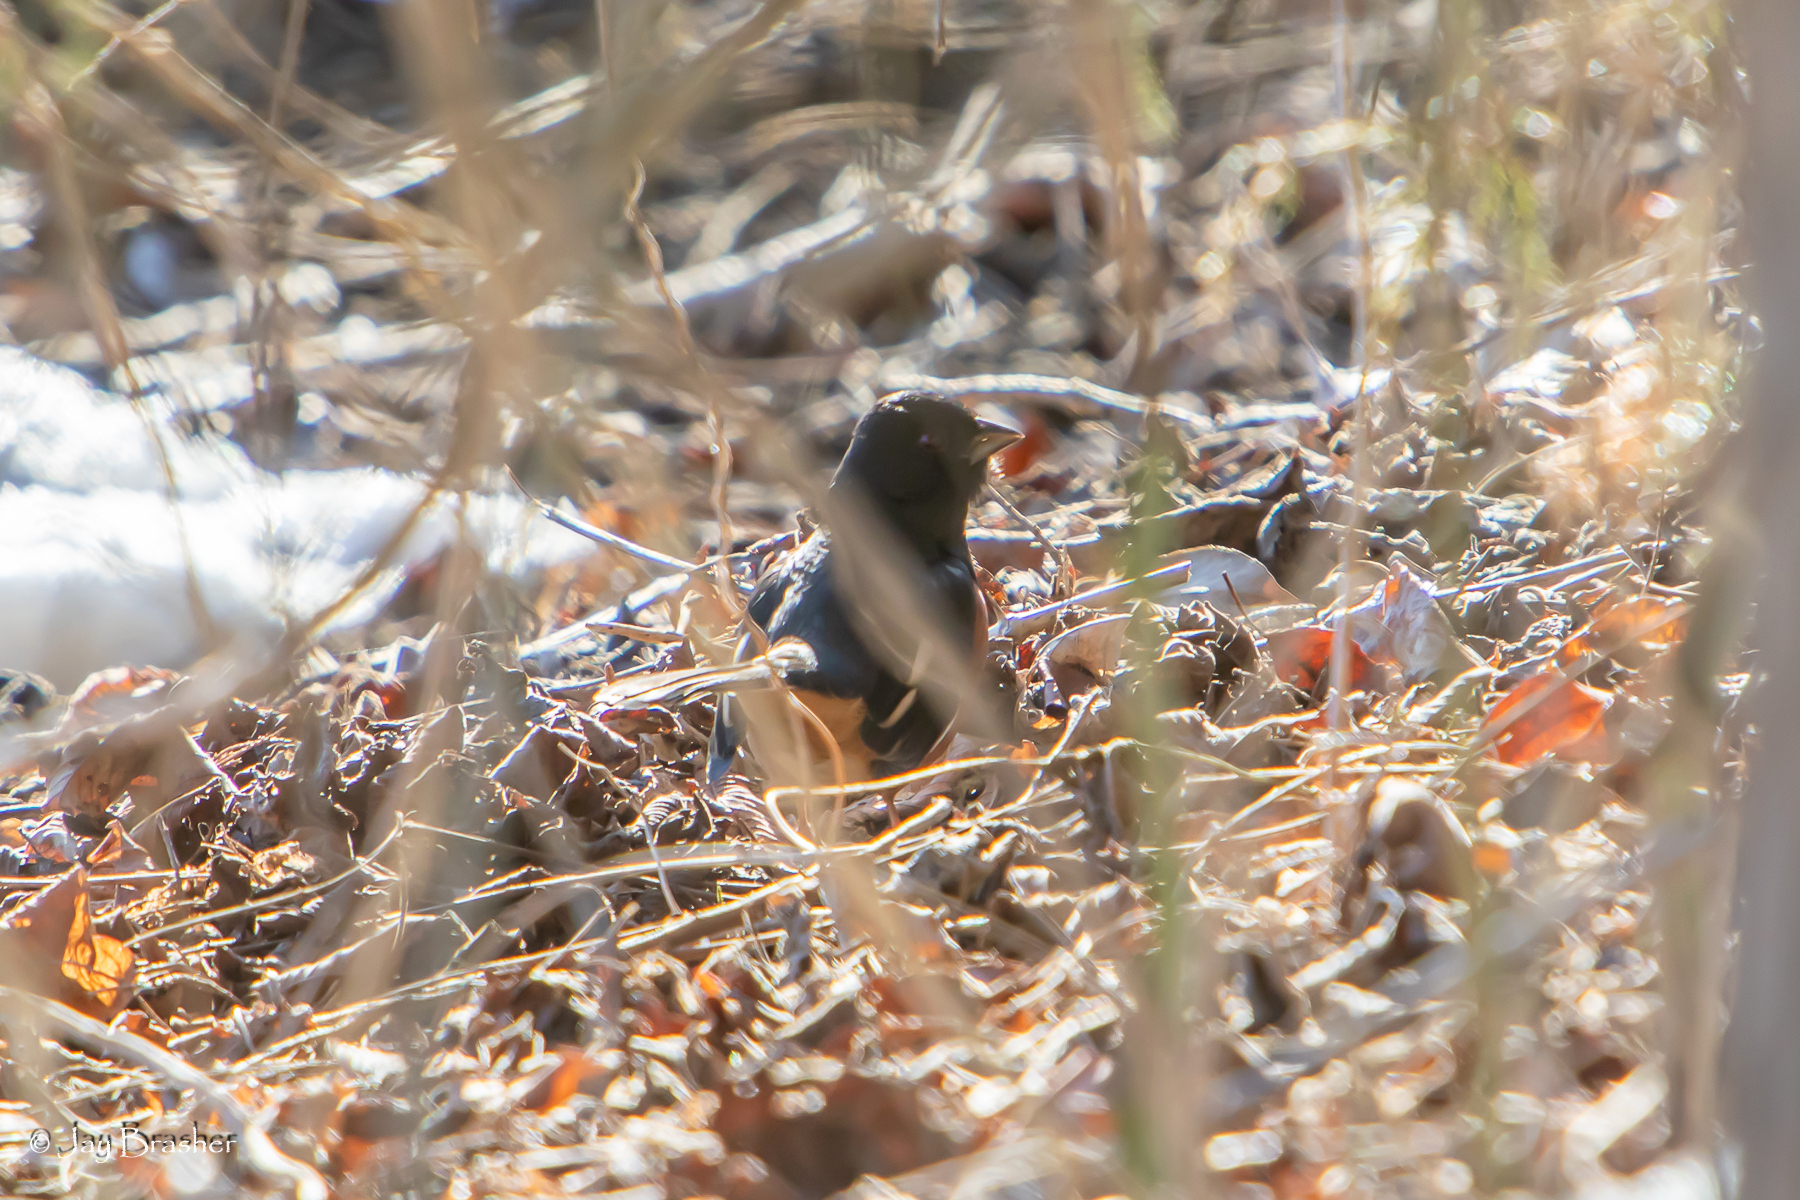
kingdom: Animalia
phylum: Chordata
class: Aves
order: Passeriformes
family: Passerellidae
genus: Pipilo
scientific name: Pipilo erythrophthalmus
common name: Eastern towhee
